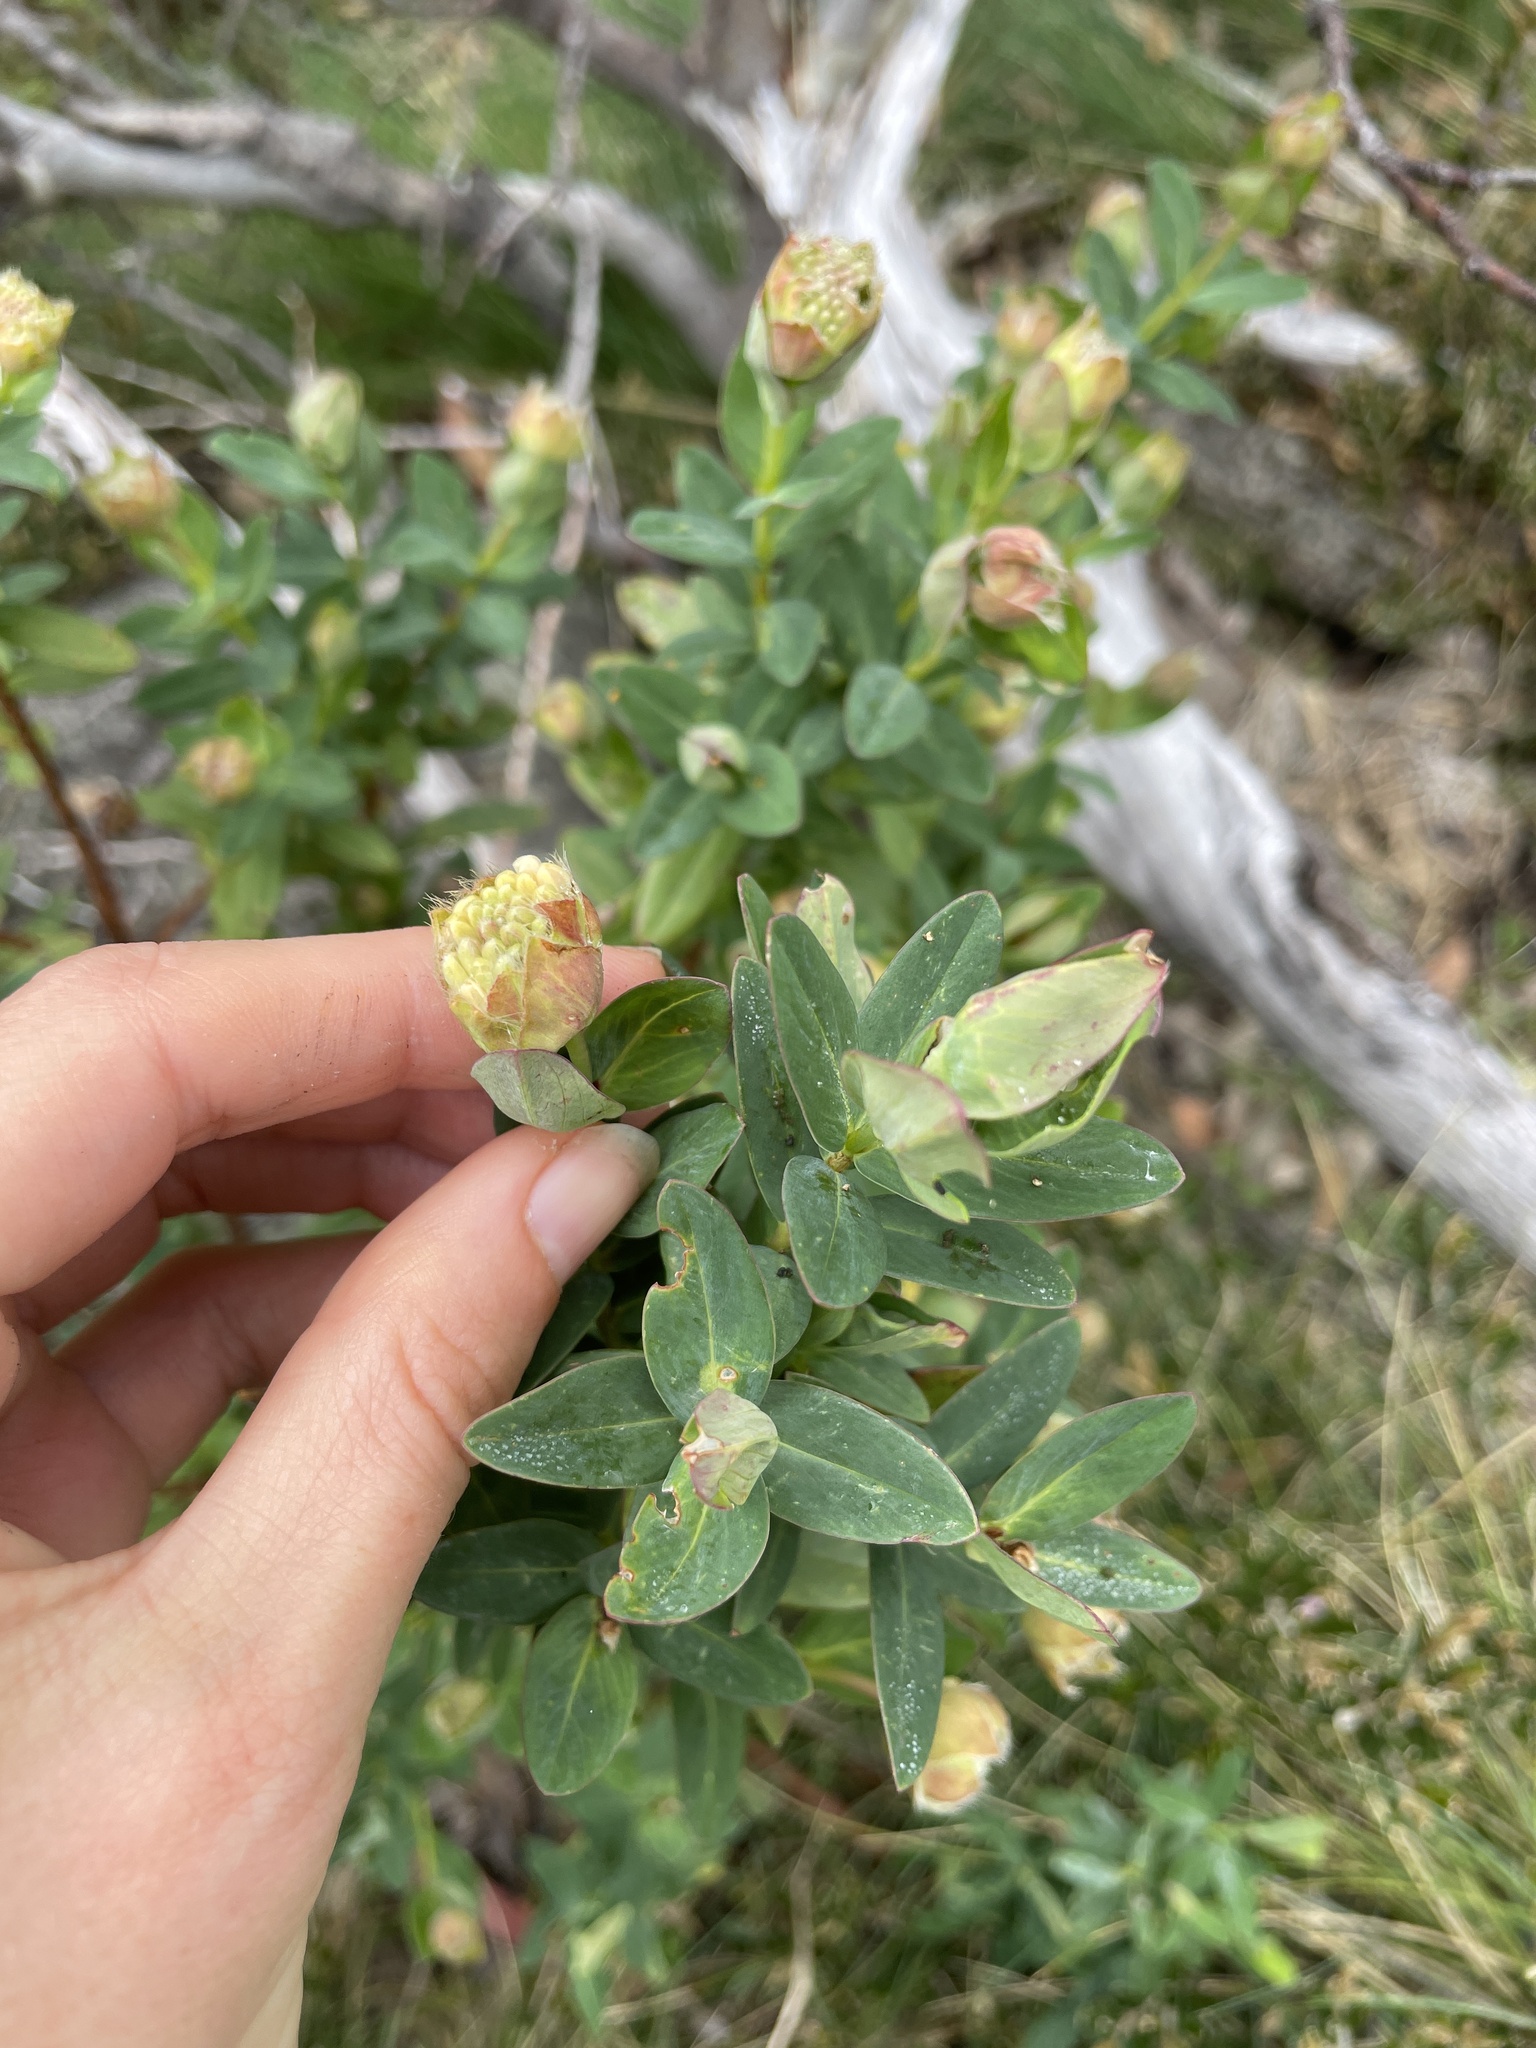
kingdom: Plantae
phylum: Tracheophyta
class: Magnoliopsida
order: Malvales
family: Thymelaeaceae
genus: Pimelea
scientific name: Pimelea ligustrina
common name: Tall riceflower
